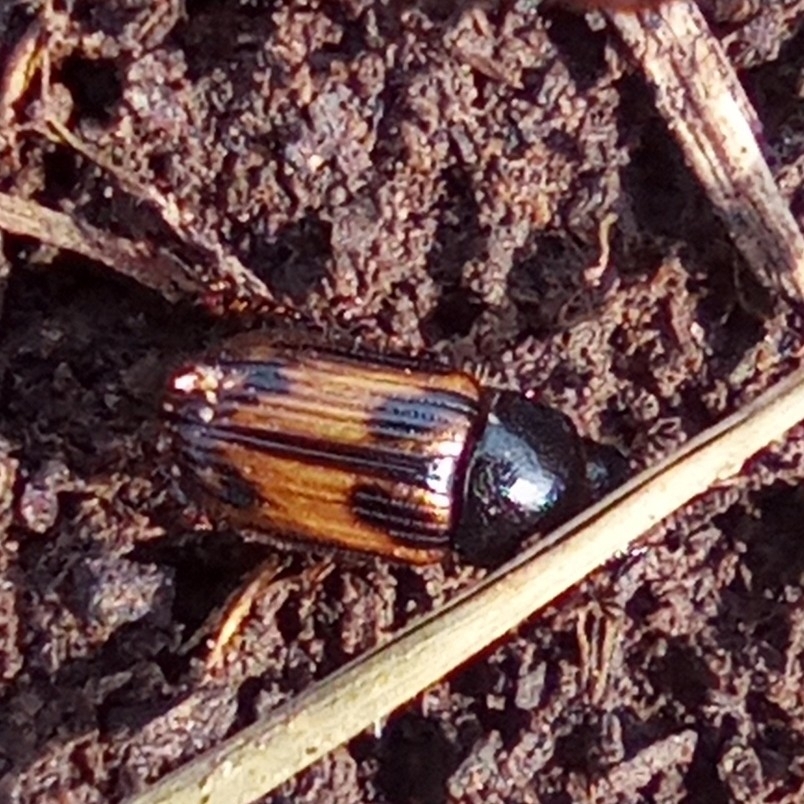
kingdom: Animalia
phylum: Arthropoda
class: Insecta
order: Coleoptera
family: Scarabaeidae
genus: Chilothorax
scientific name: Chilothorax ivanovi
